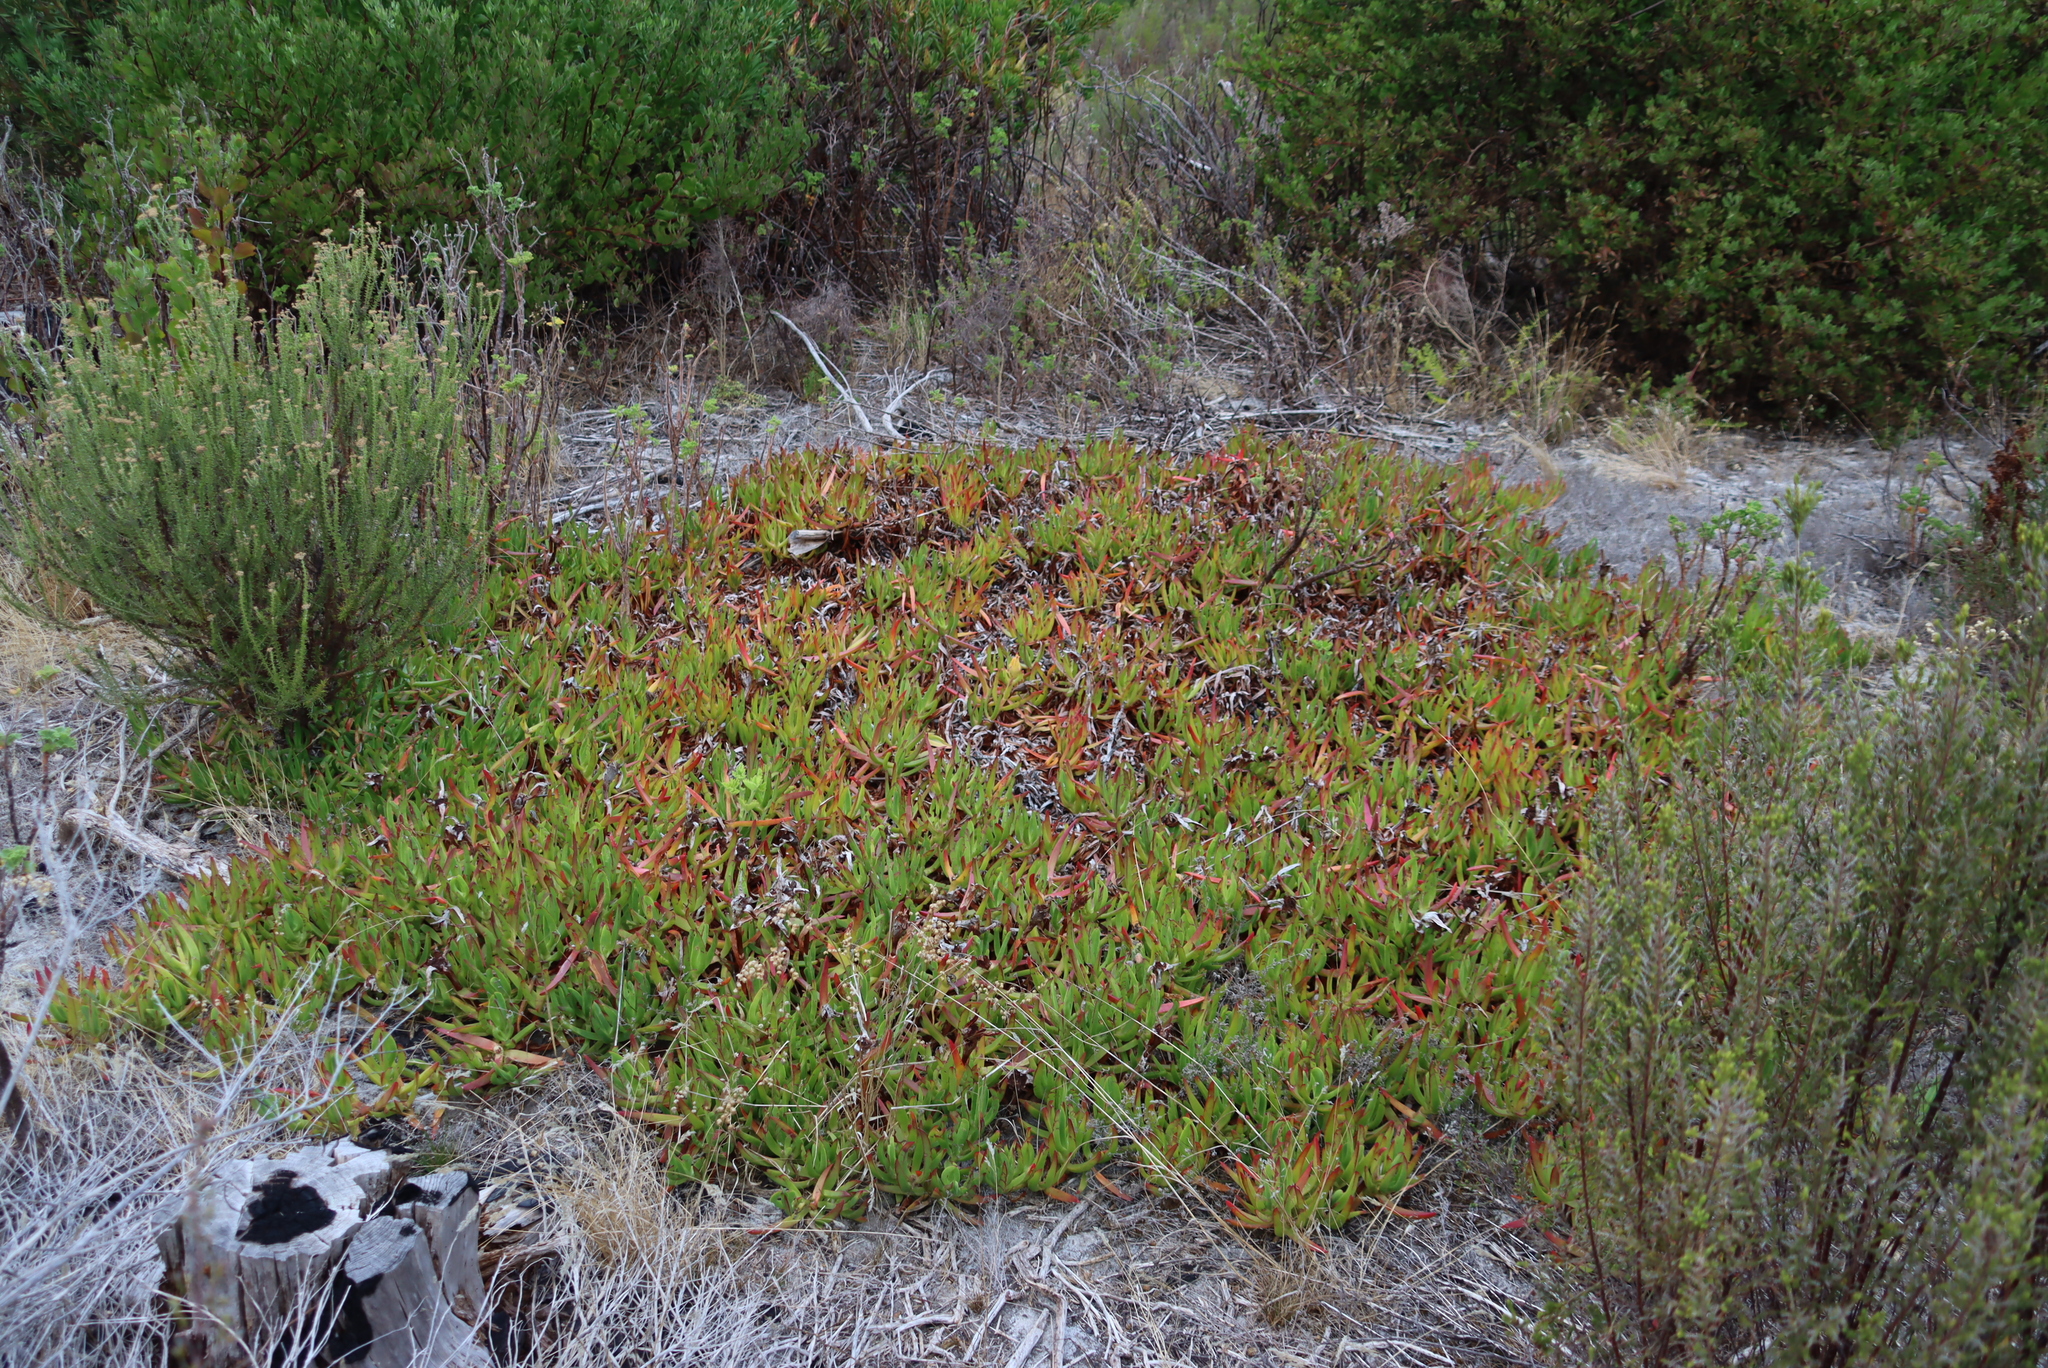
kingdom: Plantae
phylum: Tracheophyta
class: Magnoliopsida
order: Caryophyllales
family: Aizoaceae
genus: Carpobrotus
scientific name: Carpobrotus edulis
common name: Hottentot-fig
